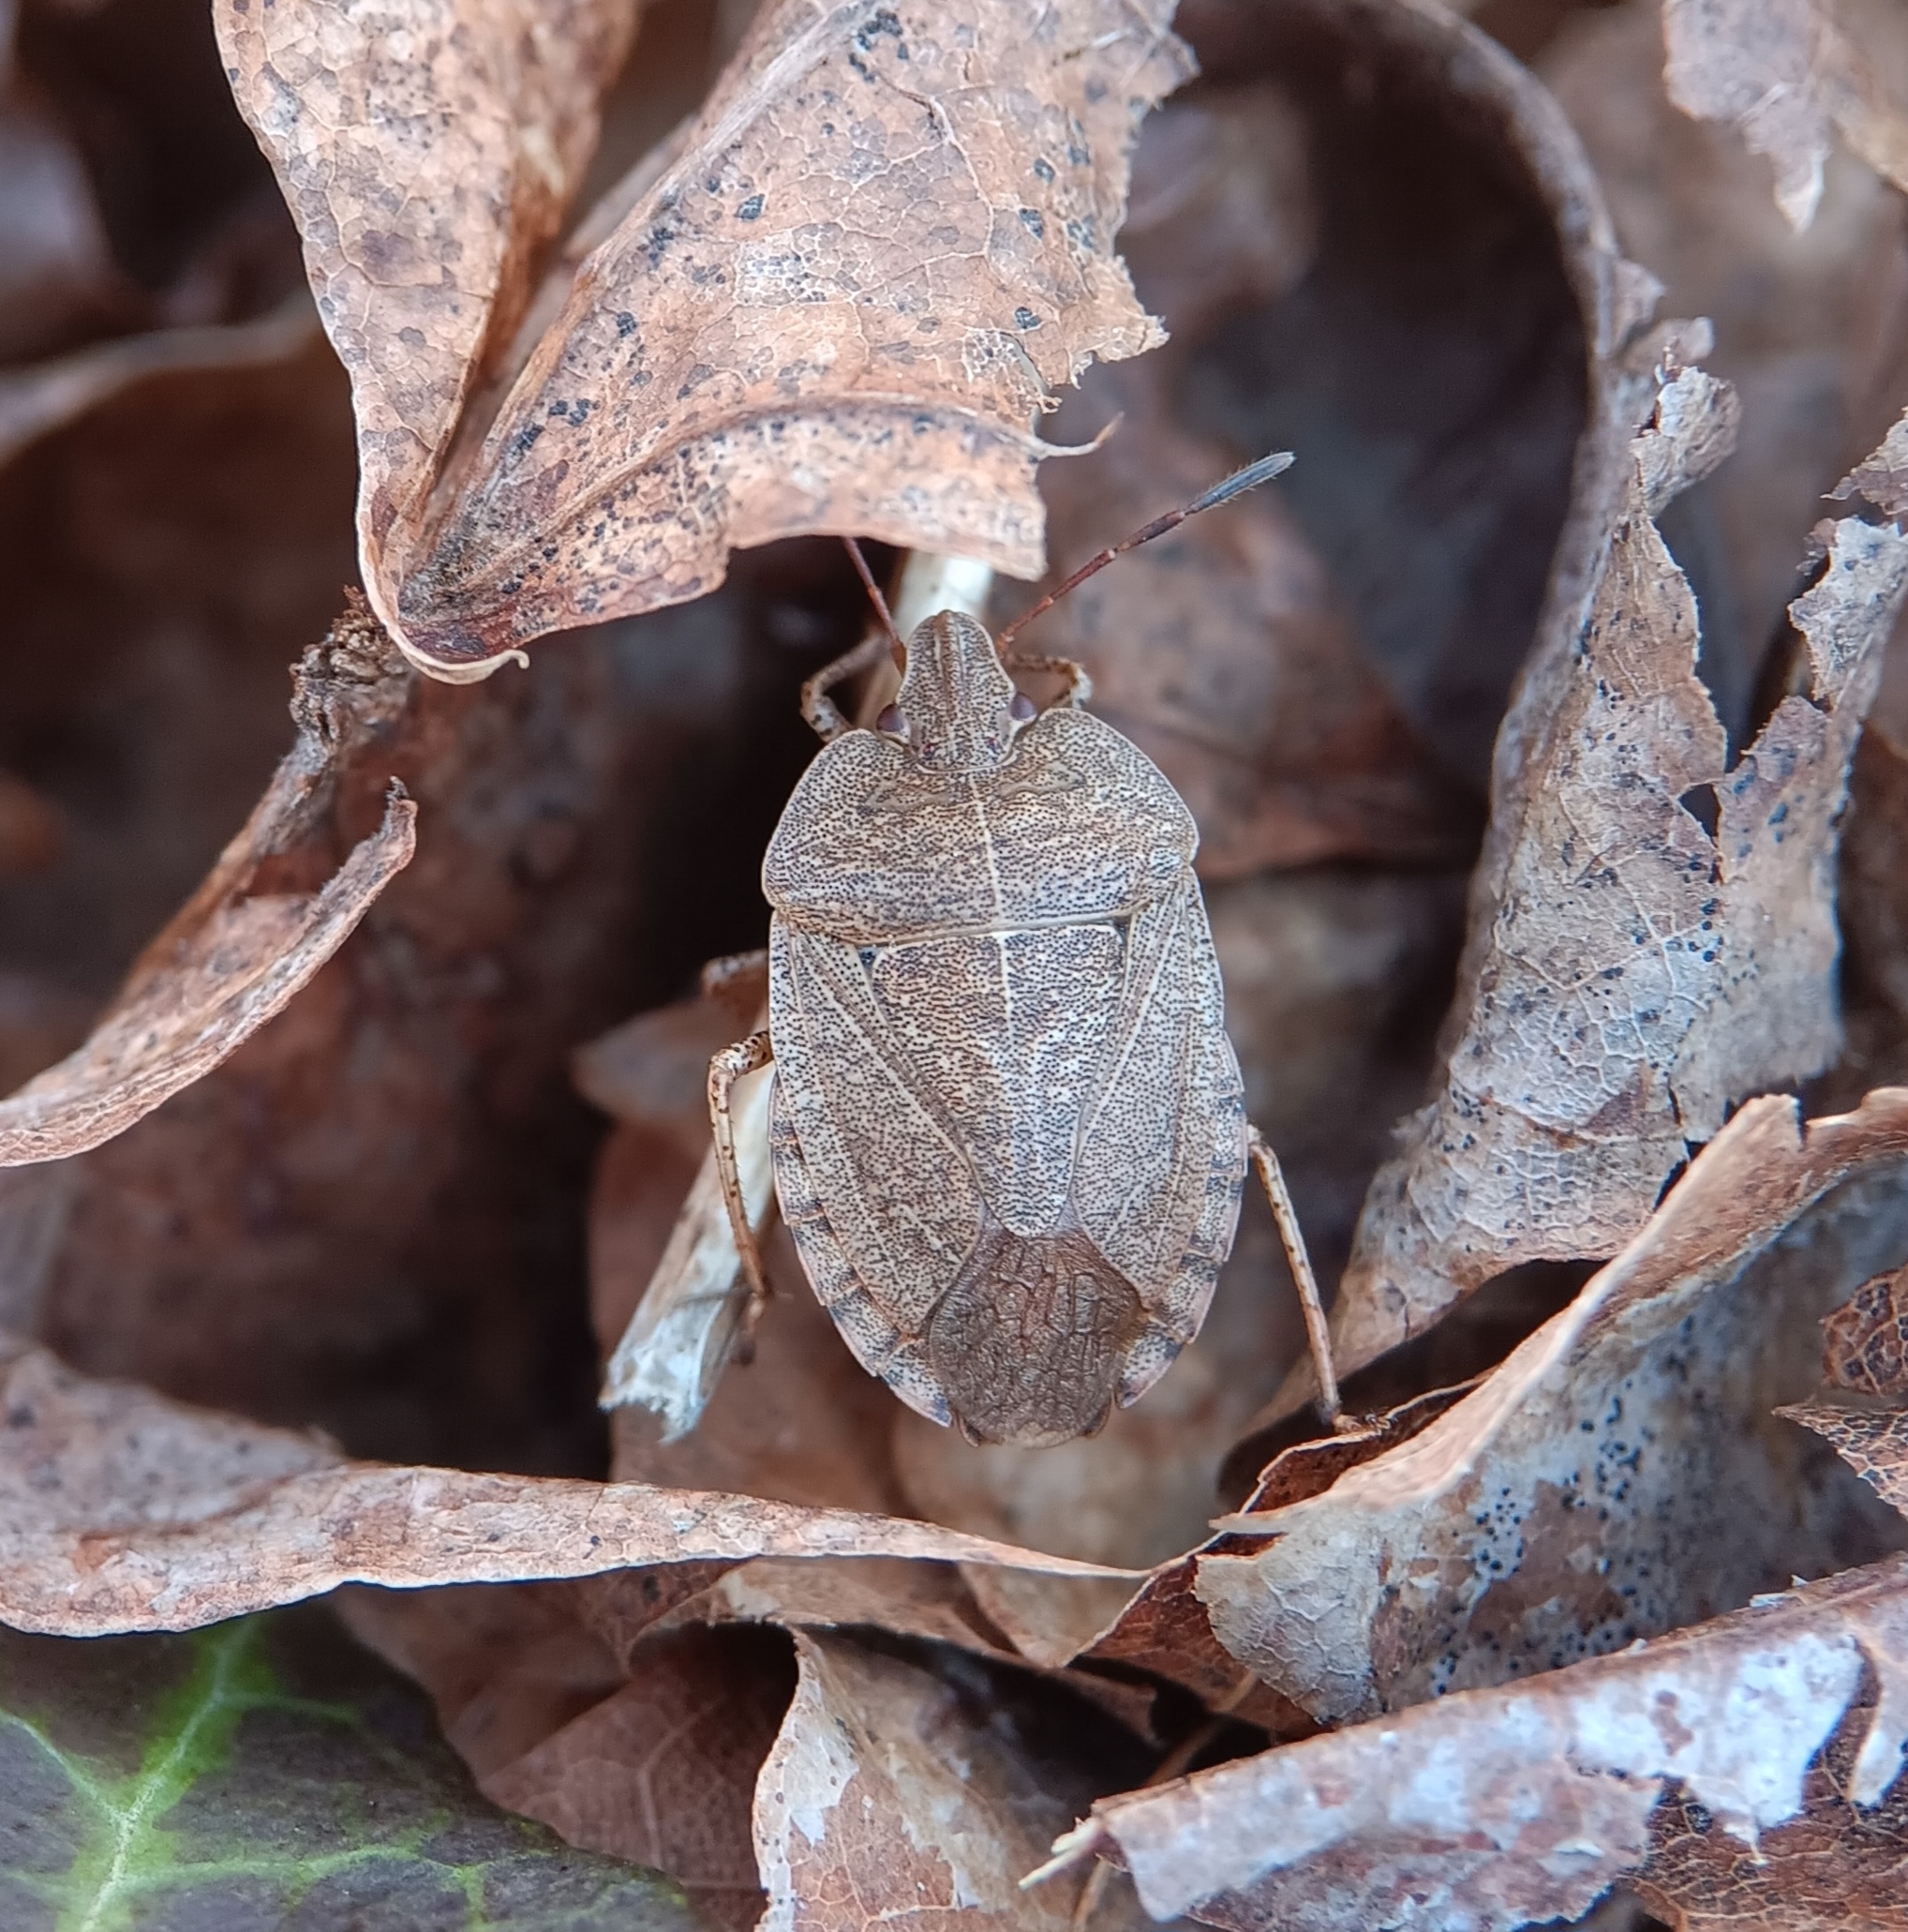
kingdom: Animalia
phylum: Arthropoda
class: Insecta
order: Hemiptera
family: Pentatomidae
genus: Menecles
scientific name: Menecles insertus
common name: Elf shoe stink bug
